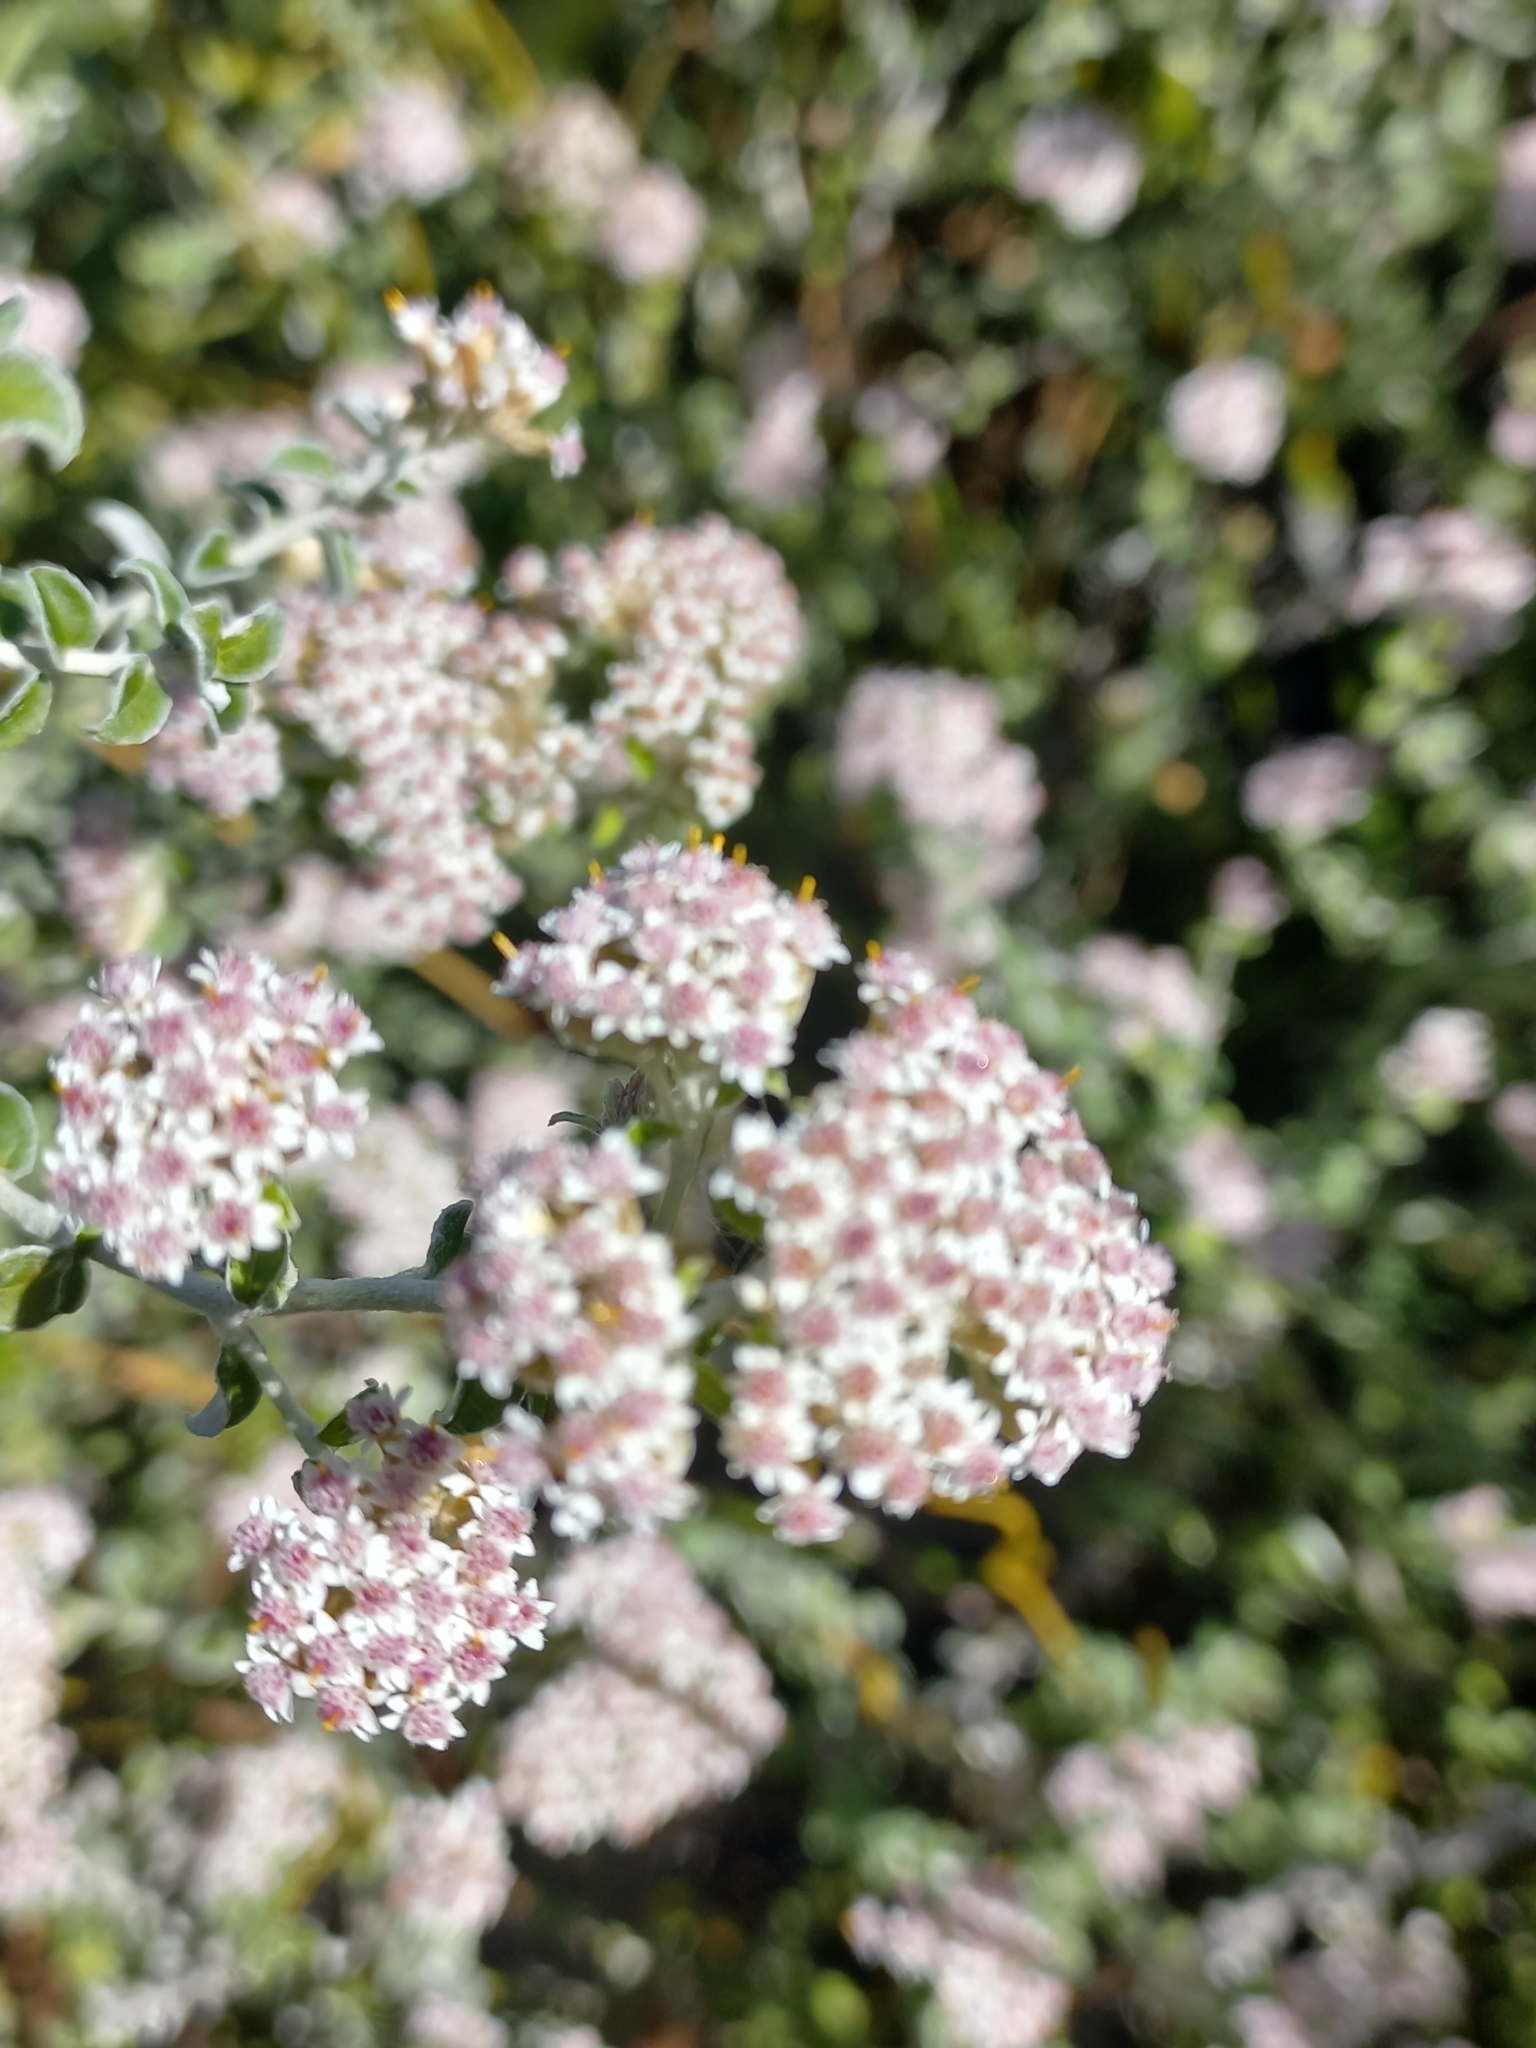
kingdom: Plantae
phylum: Tracheophyta
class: Magnoliopsida
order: Asterales
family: Asteraceae
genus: Plecostachys
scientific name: Plecostachys serpyllifolia
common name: Petite licorice
